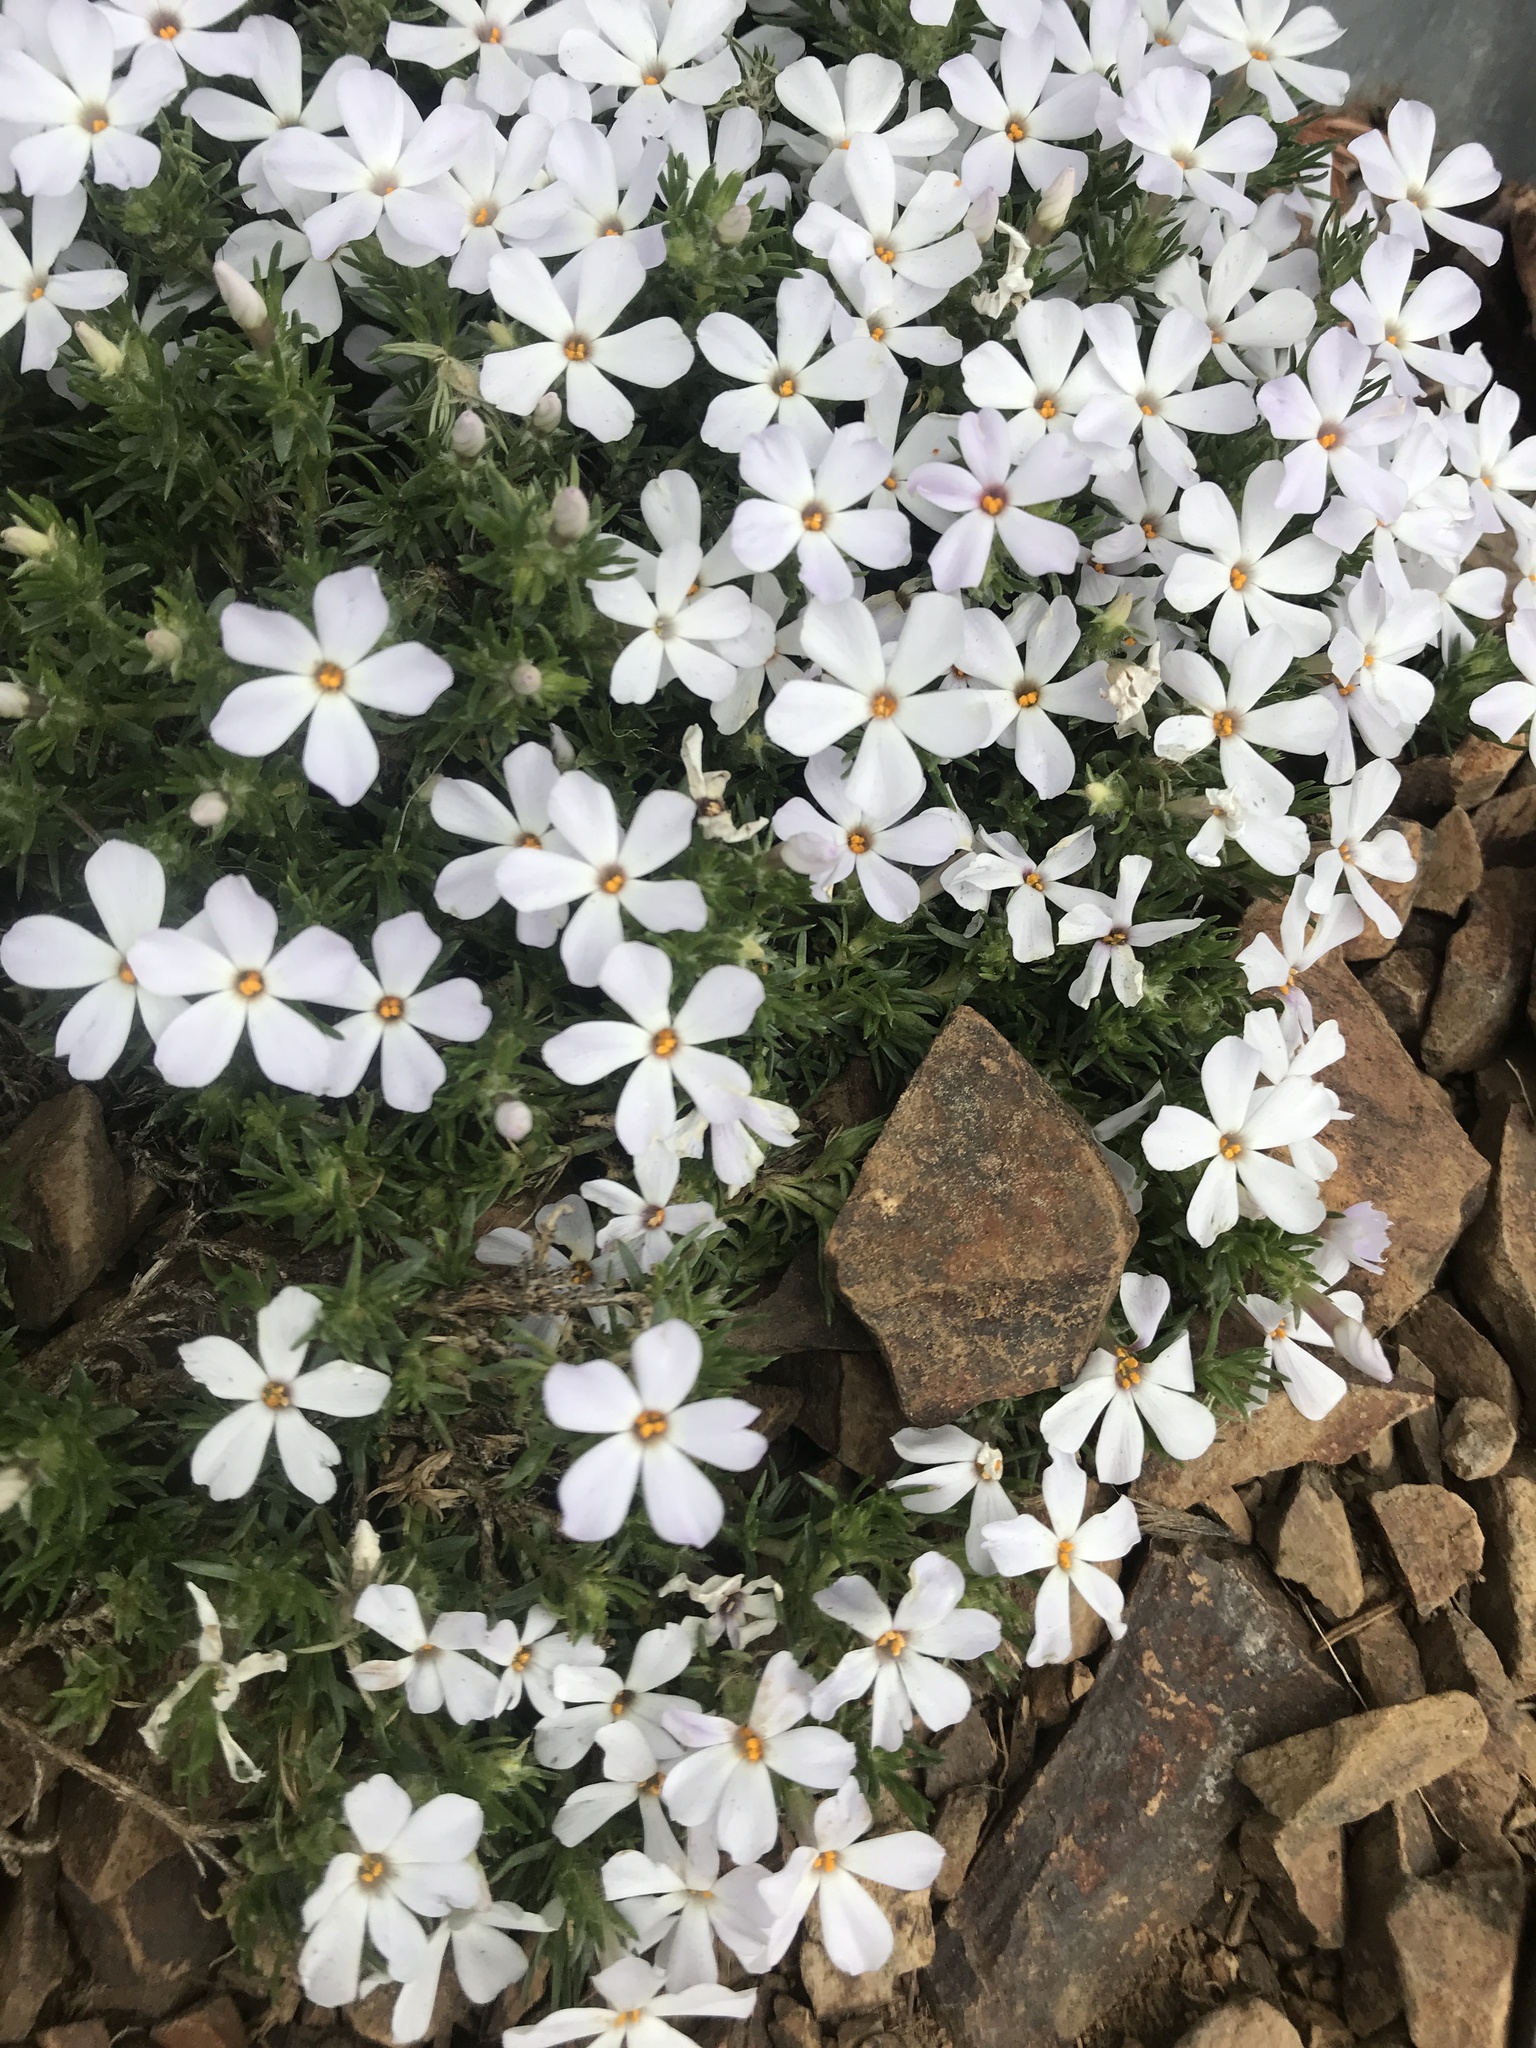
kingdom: Plantae
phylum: Tracheophyta
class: Magnoliopsida
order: Ericales
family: Polemoniaceae
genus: Phlox
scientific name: Phlox diffusa
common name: Mat phlox
